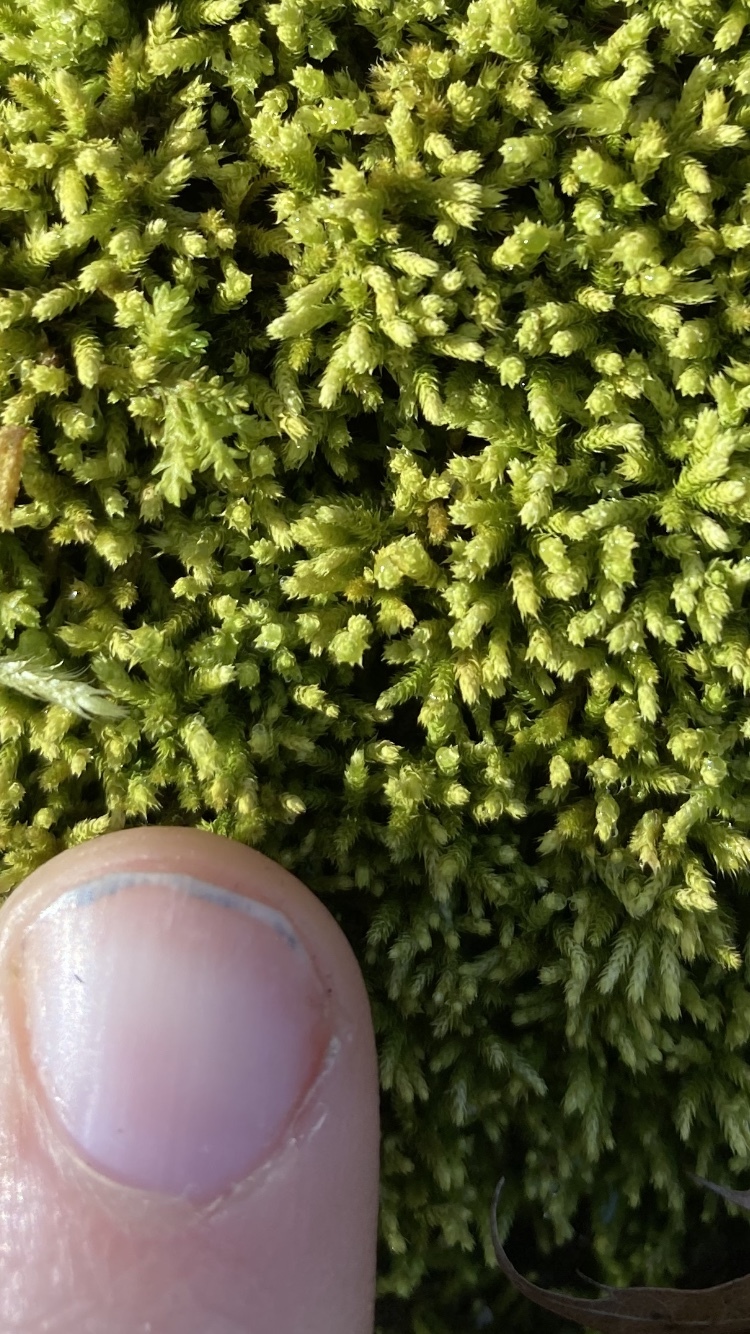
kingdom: Plantae
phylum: Bryophyta
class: Bryopsida
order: Hypnales
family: Brachytheciaceae
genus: Claopodium
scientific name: Claopodium rostratum
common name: Yellow yarn moss
